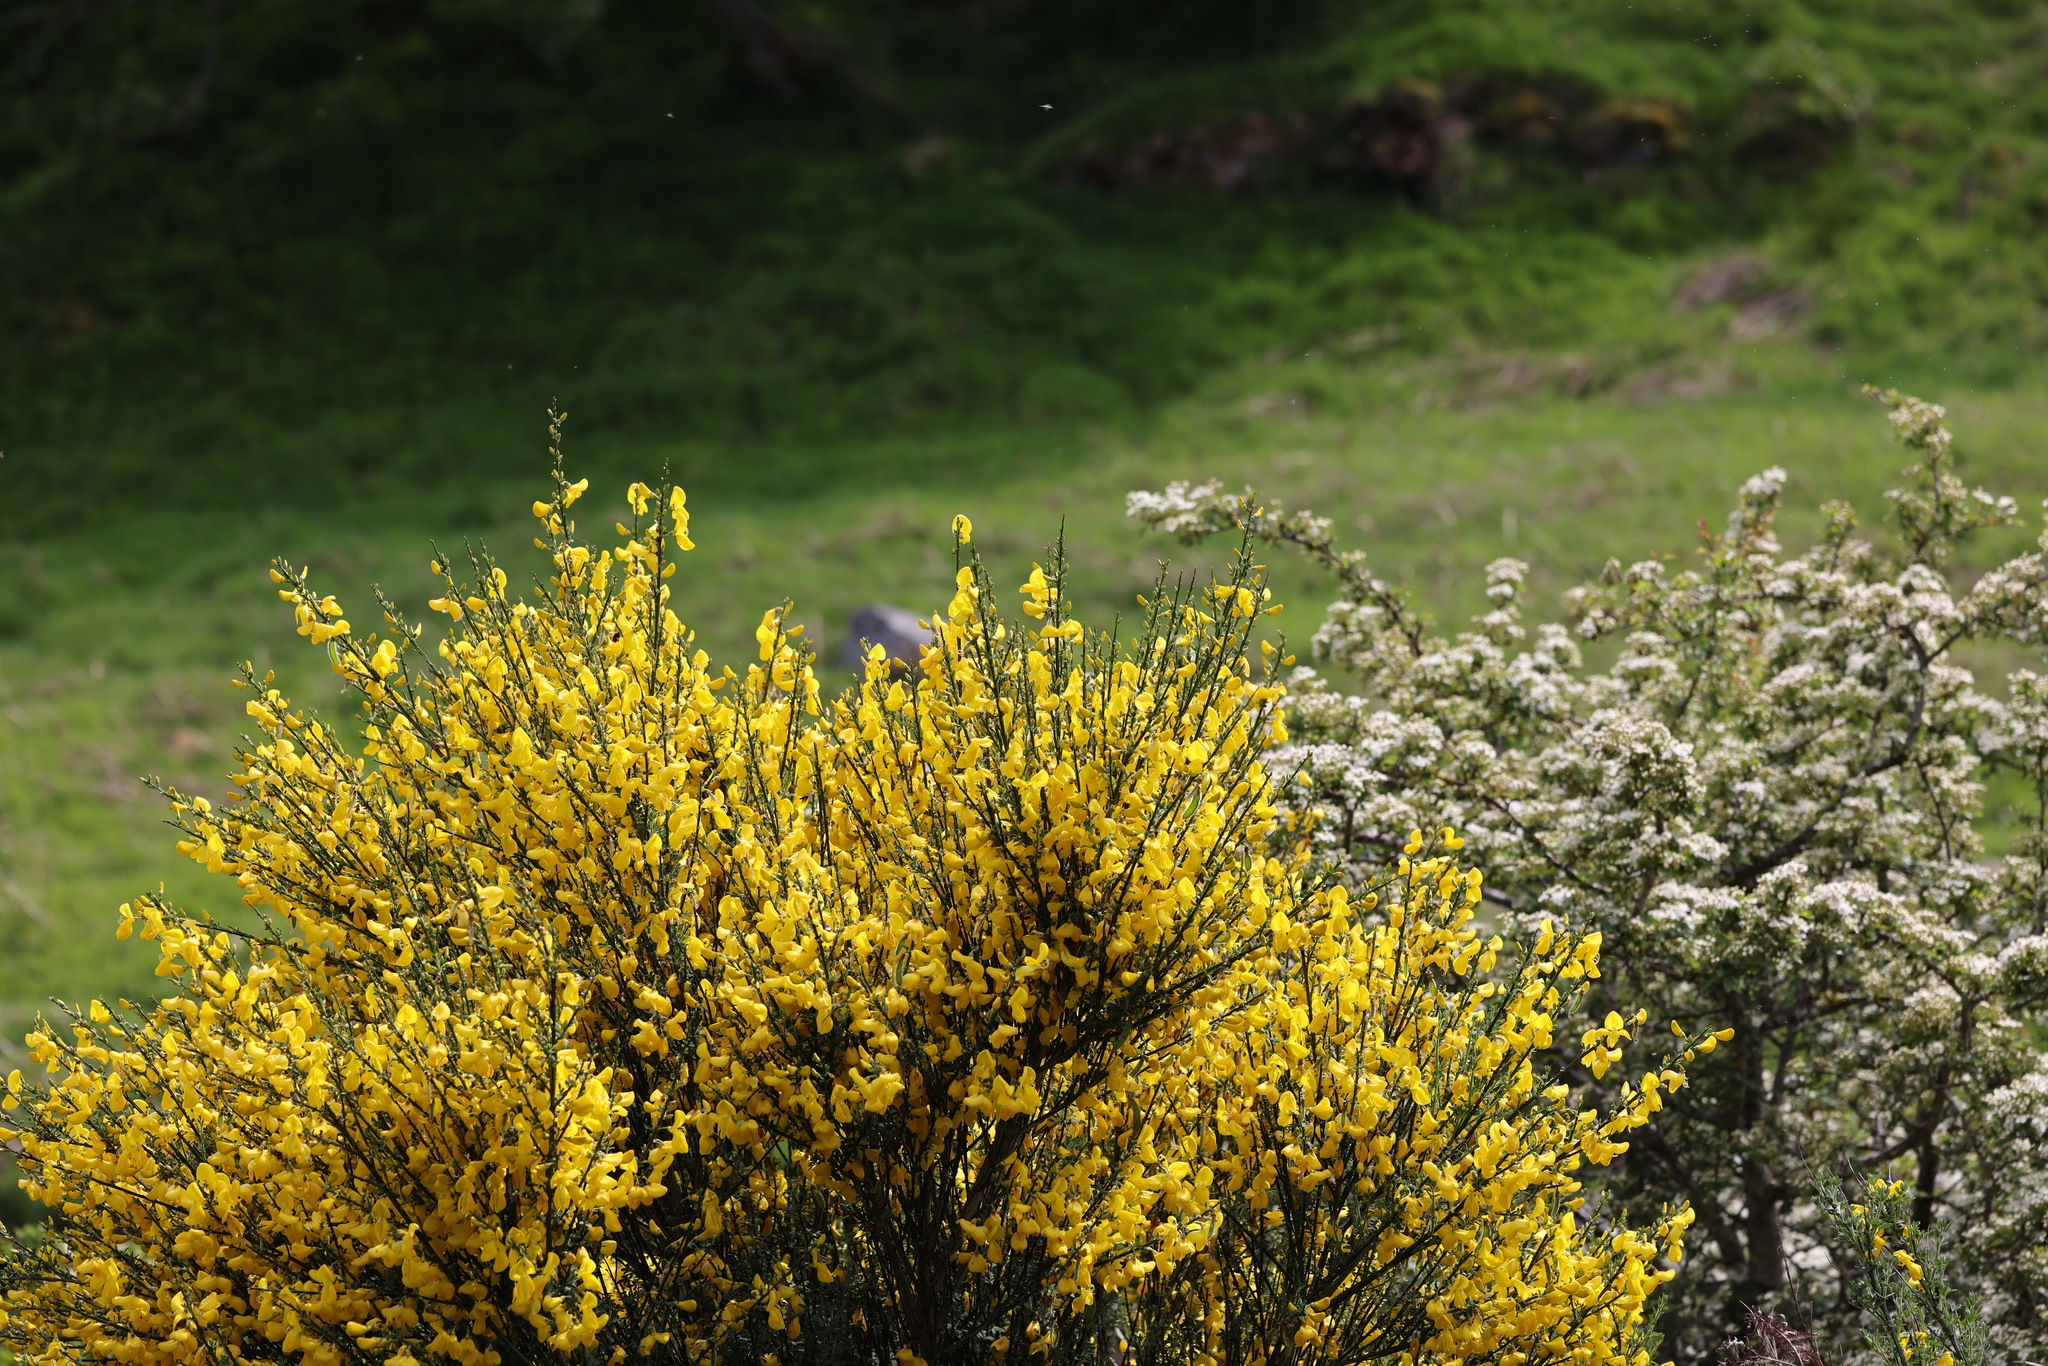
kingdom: Plantae
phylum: Tracheophyta
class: Magnoliopsida
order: Fabales
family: Fabaceae
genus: Cytisus
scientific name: Cytisus scoparius
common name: Scotch broom
